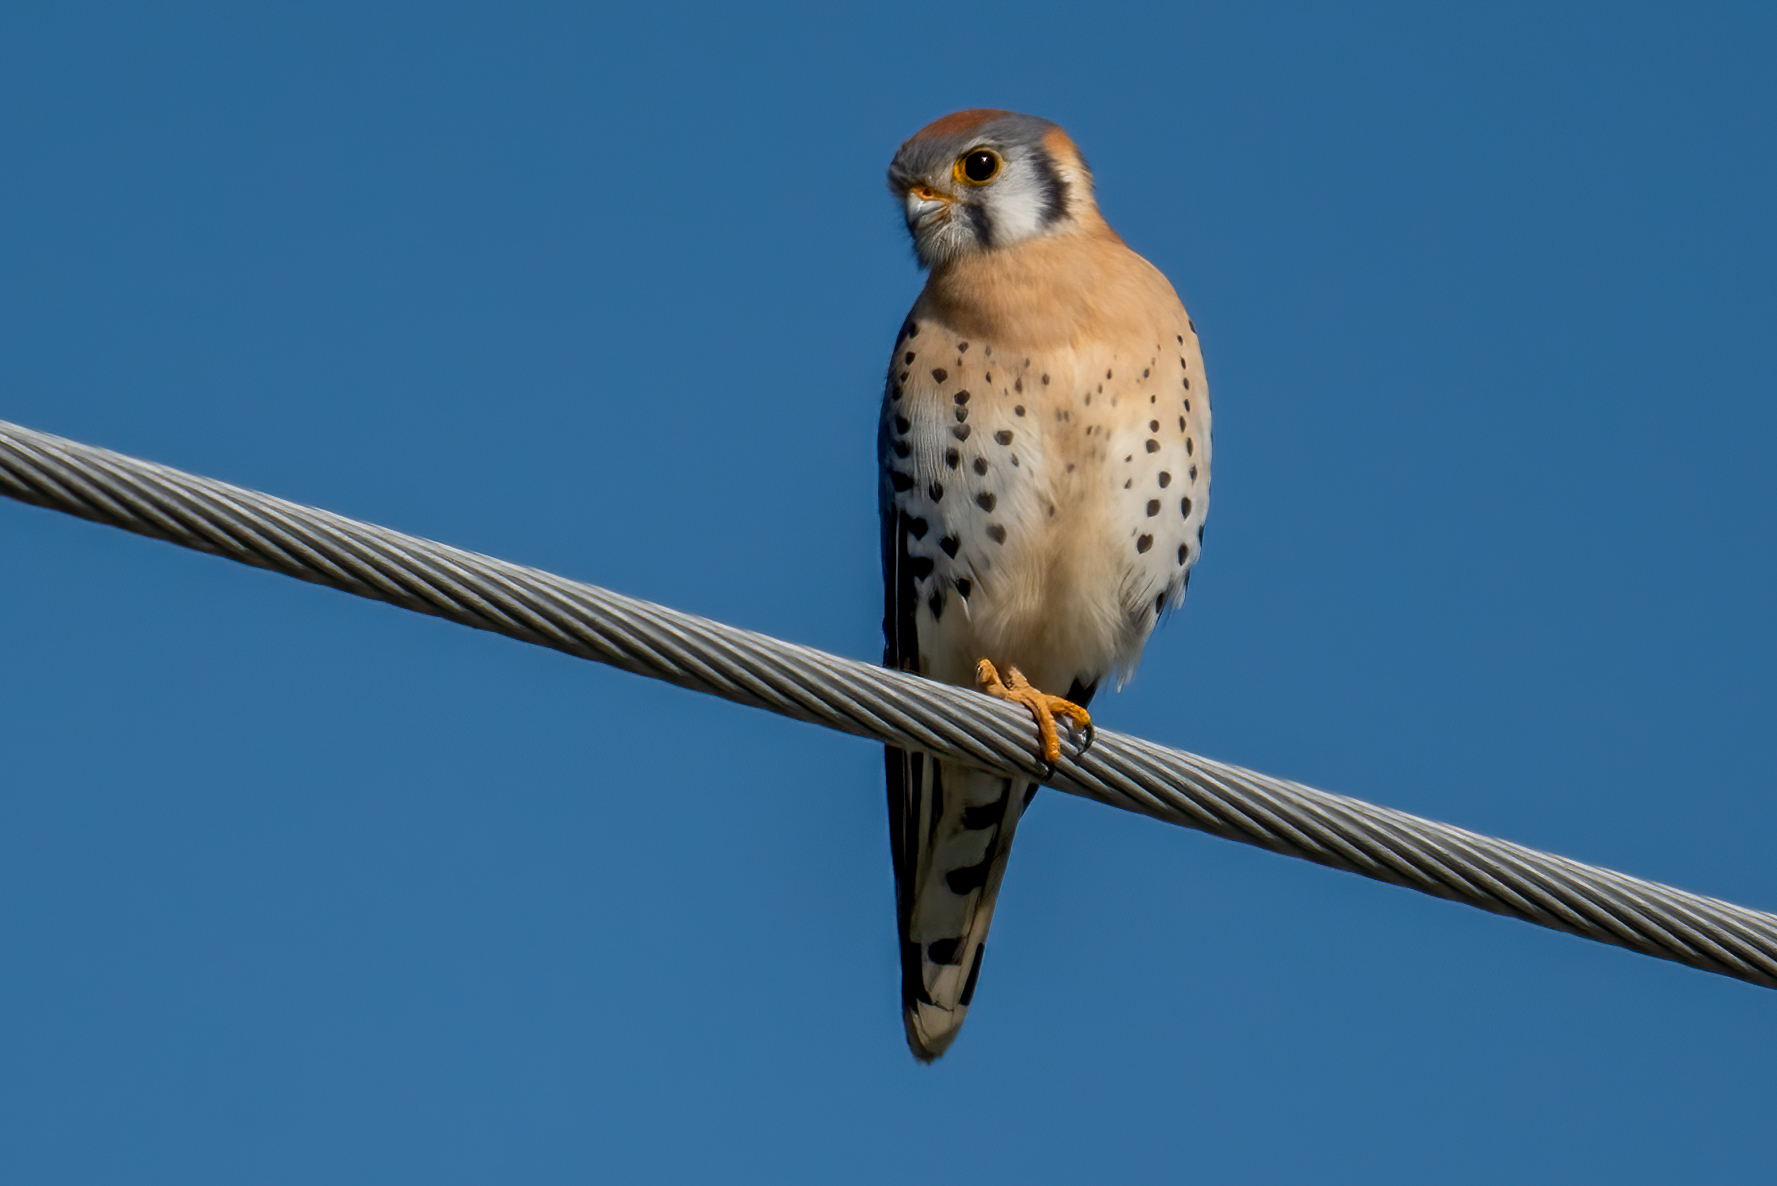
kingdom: Animalia
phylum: Chordata
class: Aves
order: Falconiformes
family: Falconidae
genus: Falco
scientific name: Falco sparverius
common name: American kestrel
